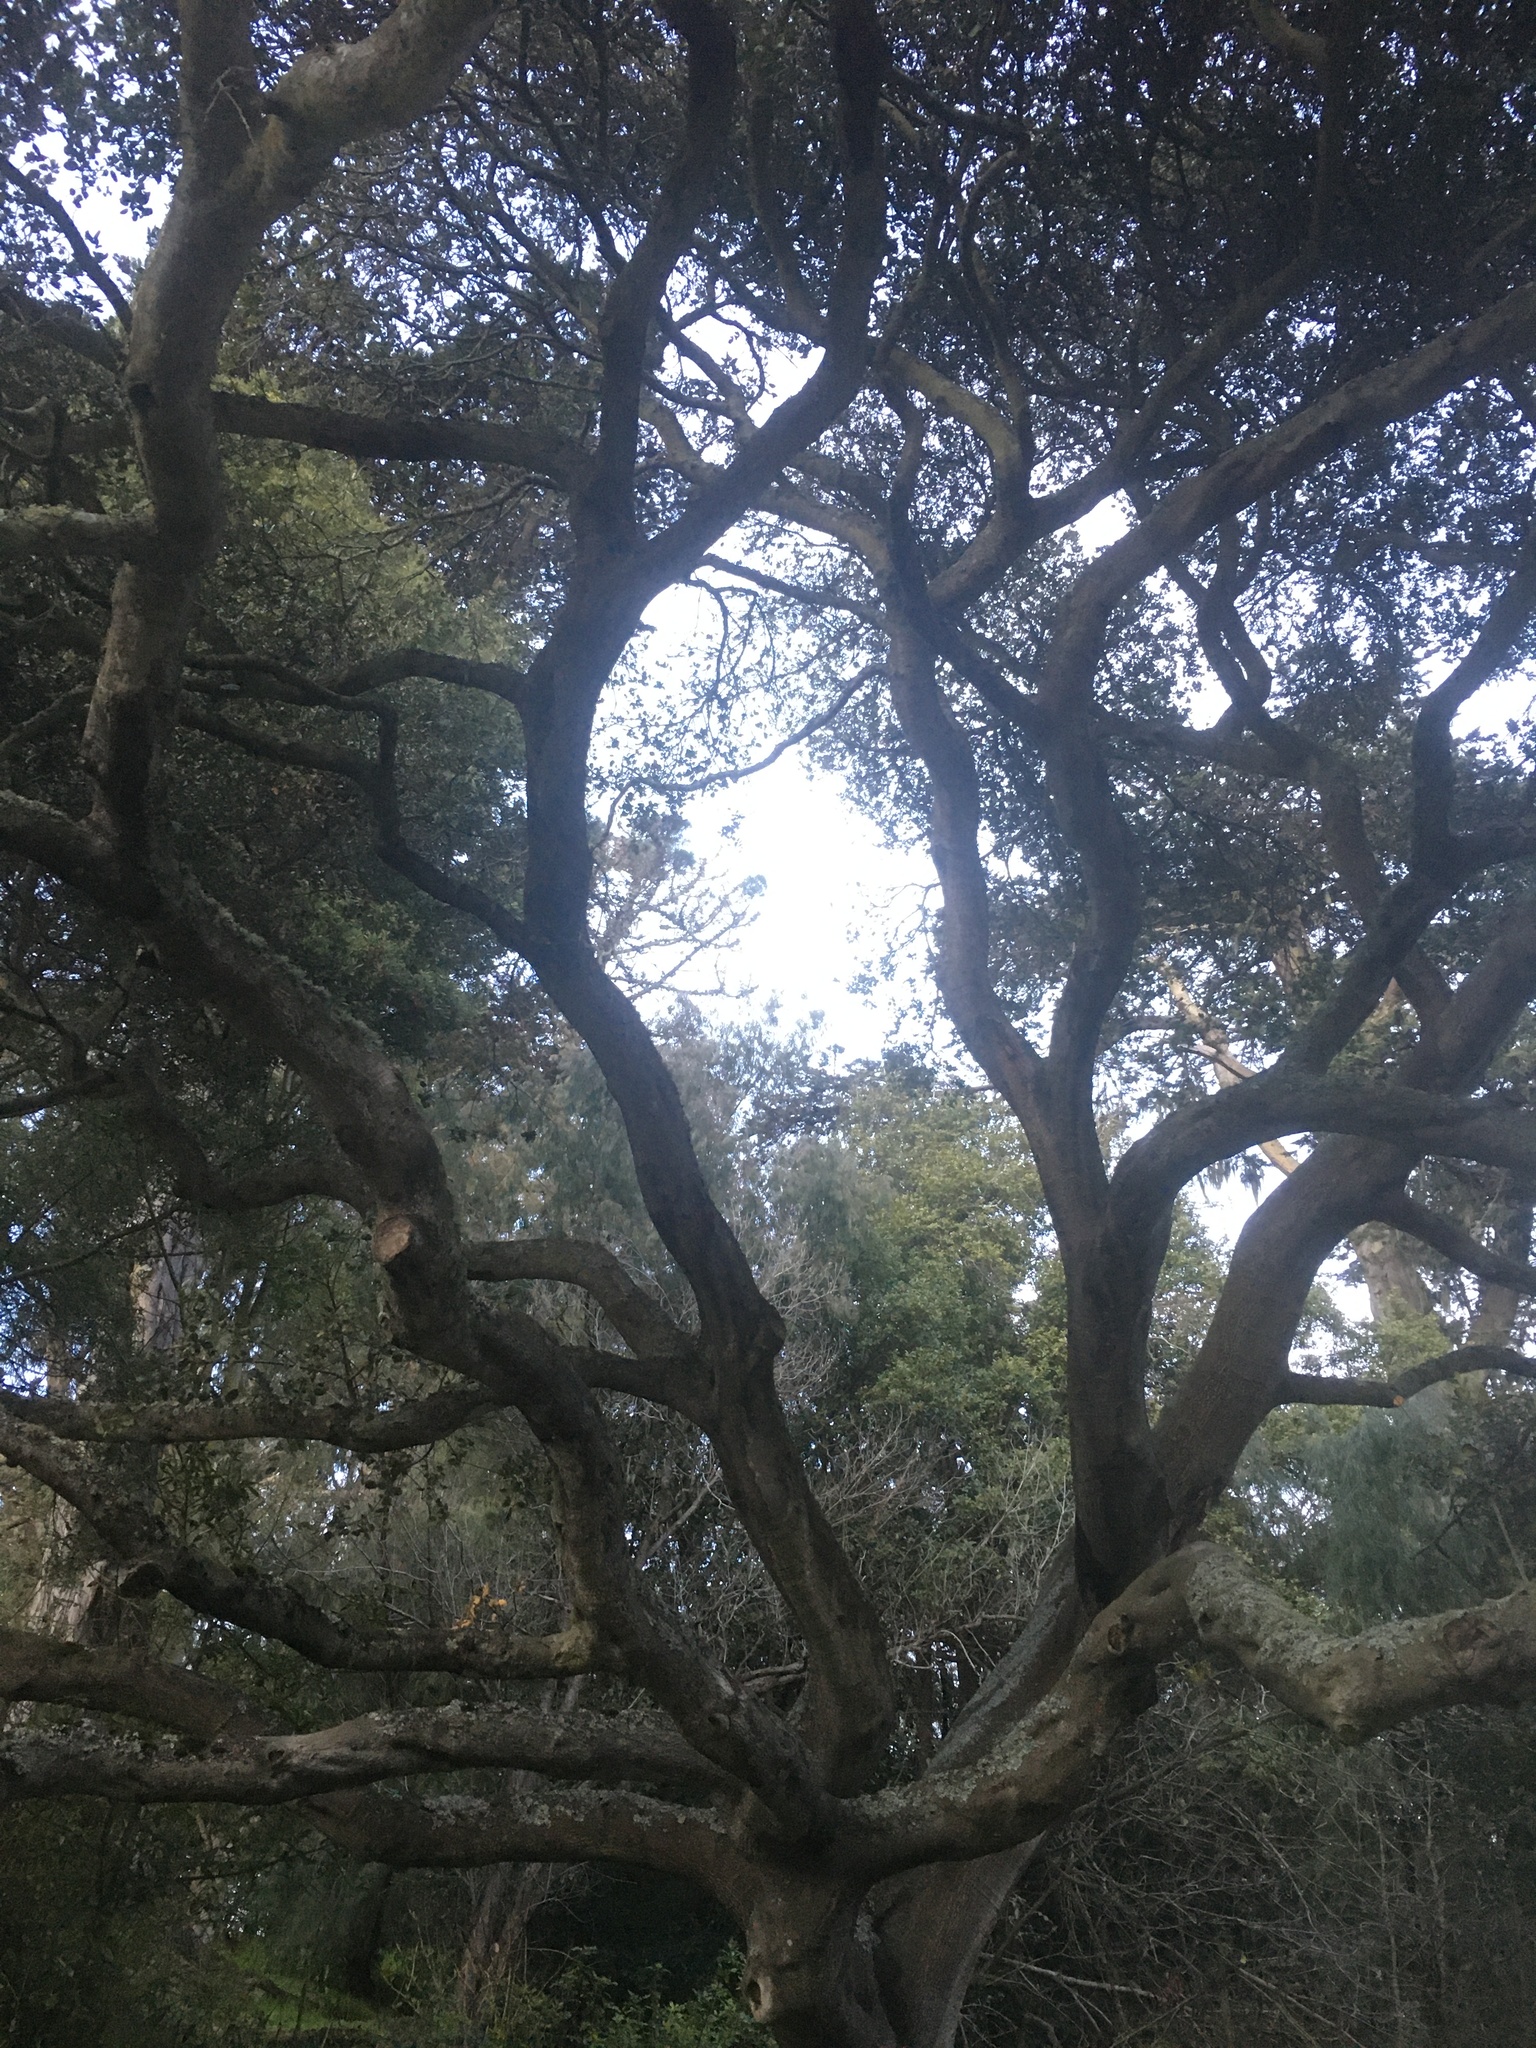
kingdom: Plantae
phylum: Tracheophyta
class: Magnoliopsida
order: Fagales
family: Fagaceae
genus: Quercus
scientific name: Quercus agrifolia
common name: California live oak
